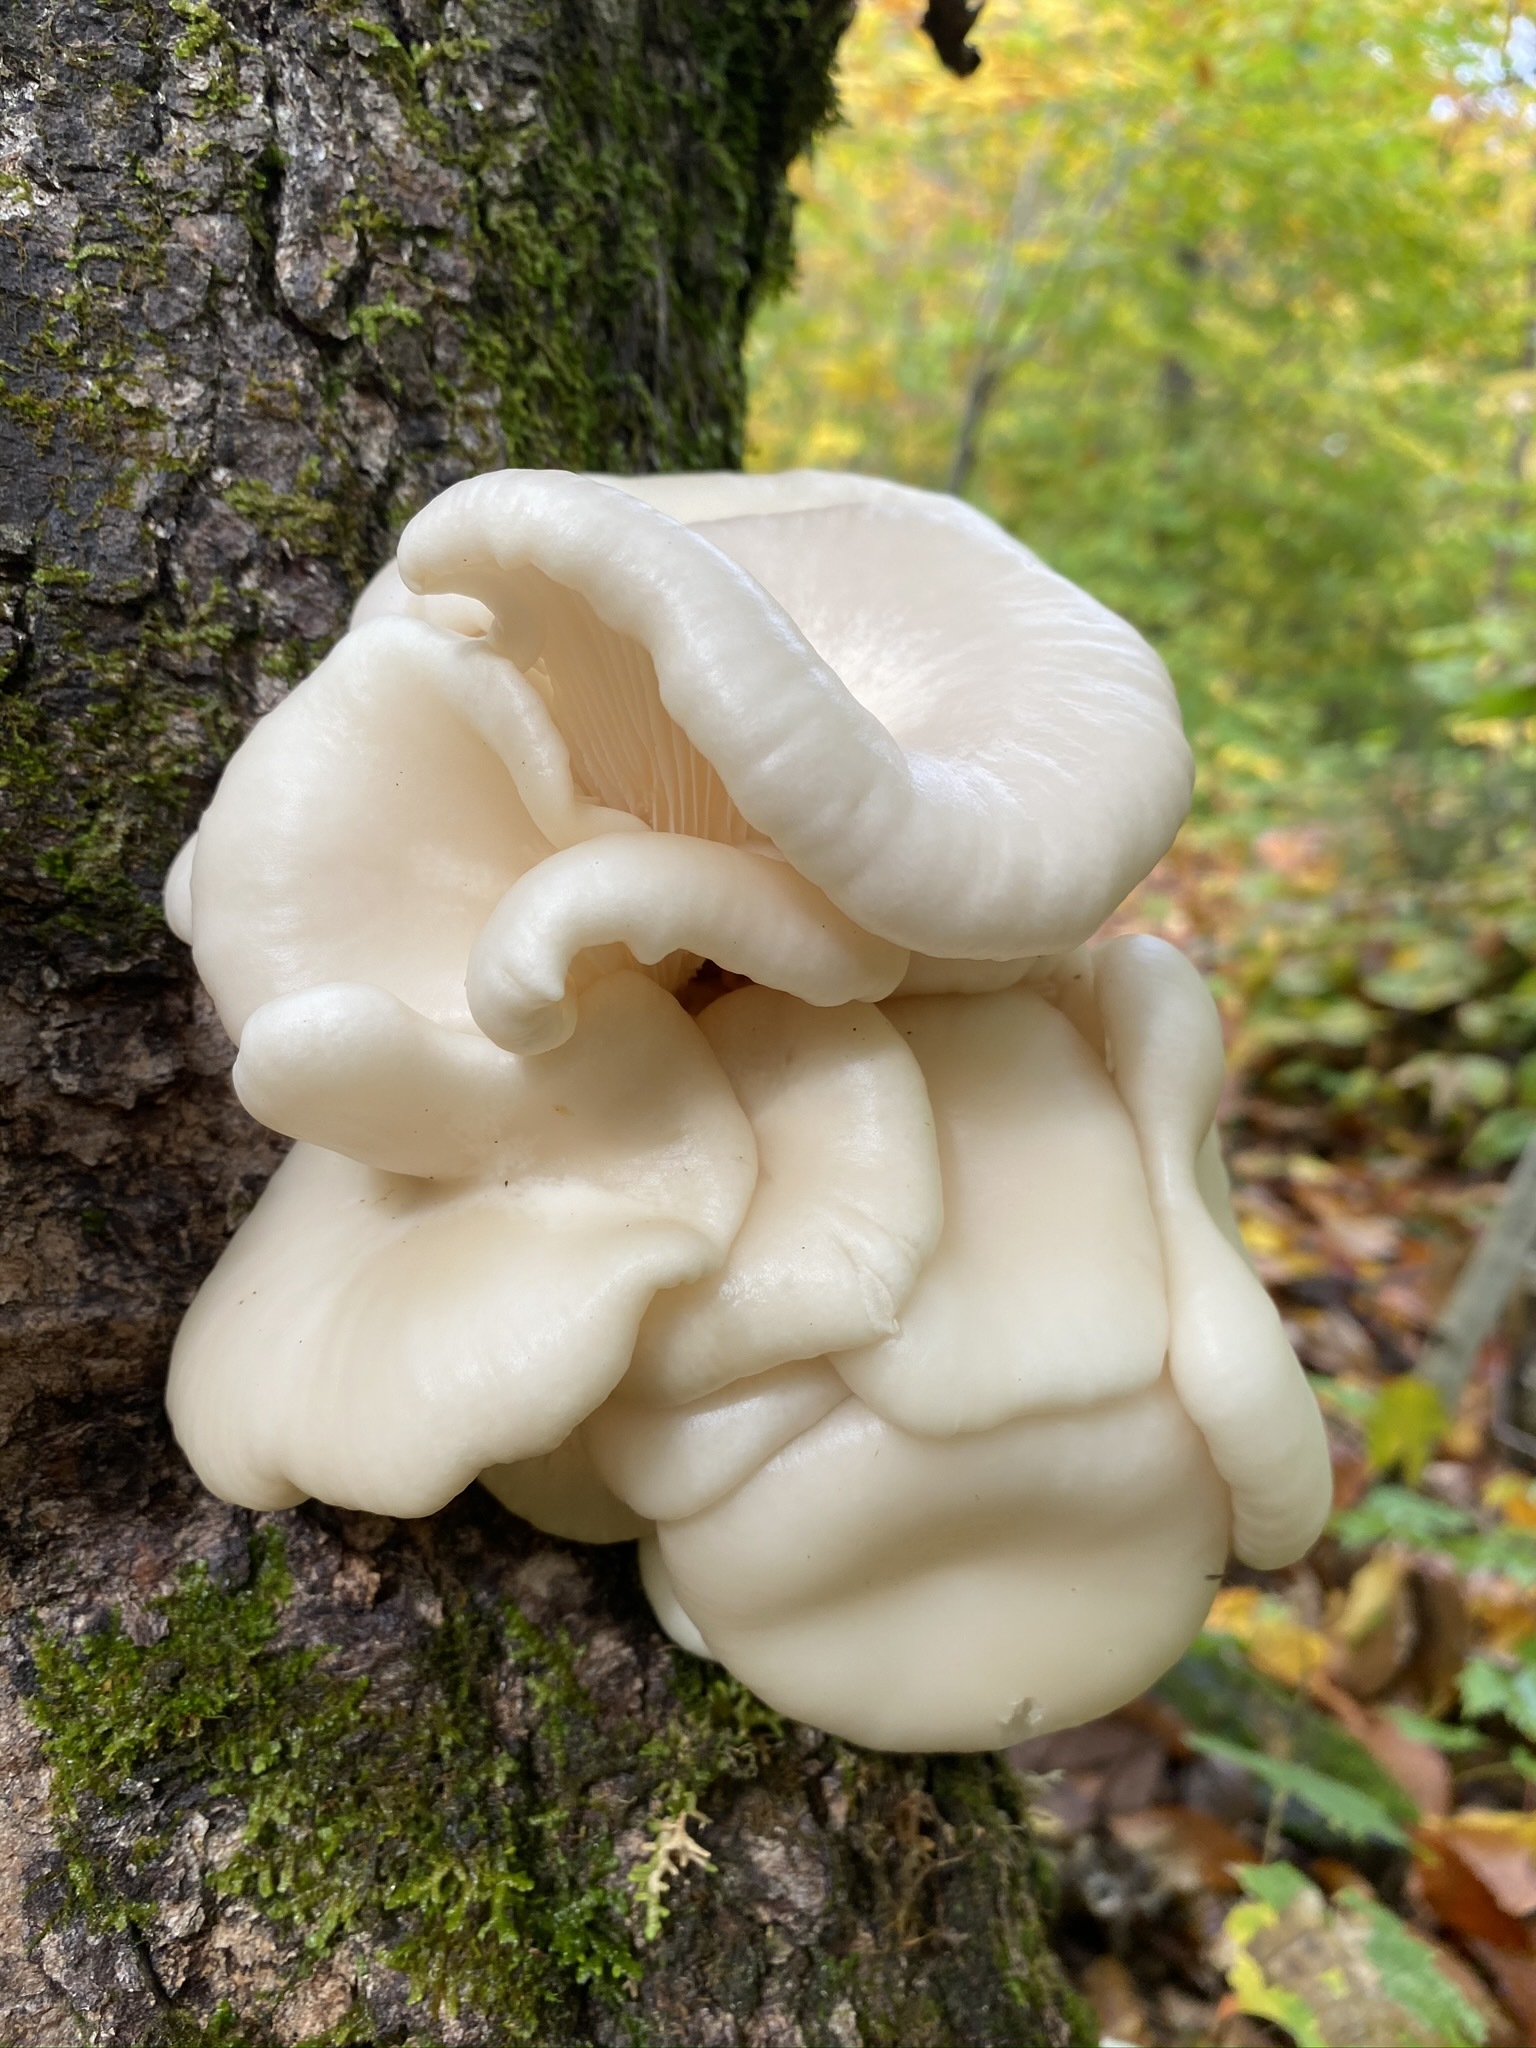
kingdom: Fungi
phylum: Basidiomycota
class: Agaricomycetes
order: Agaricales
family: Pleurotaceae
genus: Pleurotus
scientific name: Pleurotus ostreatus
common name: Oyster mushroom
